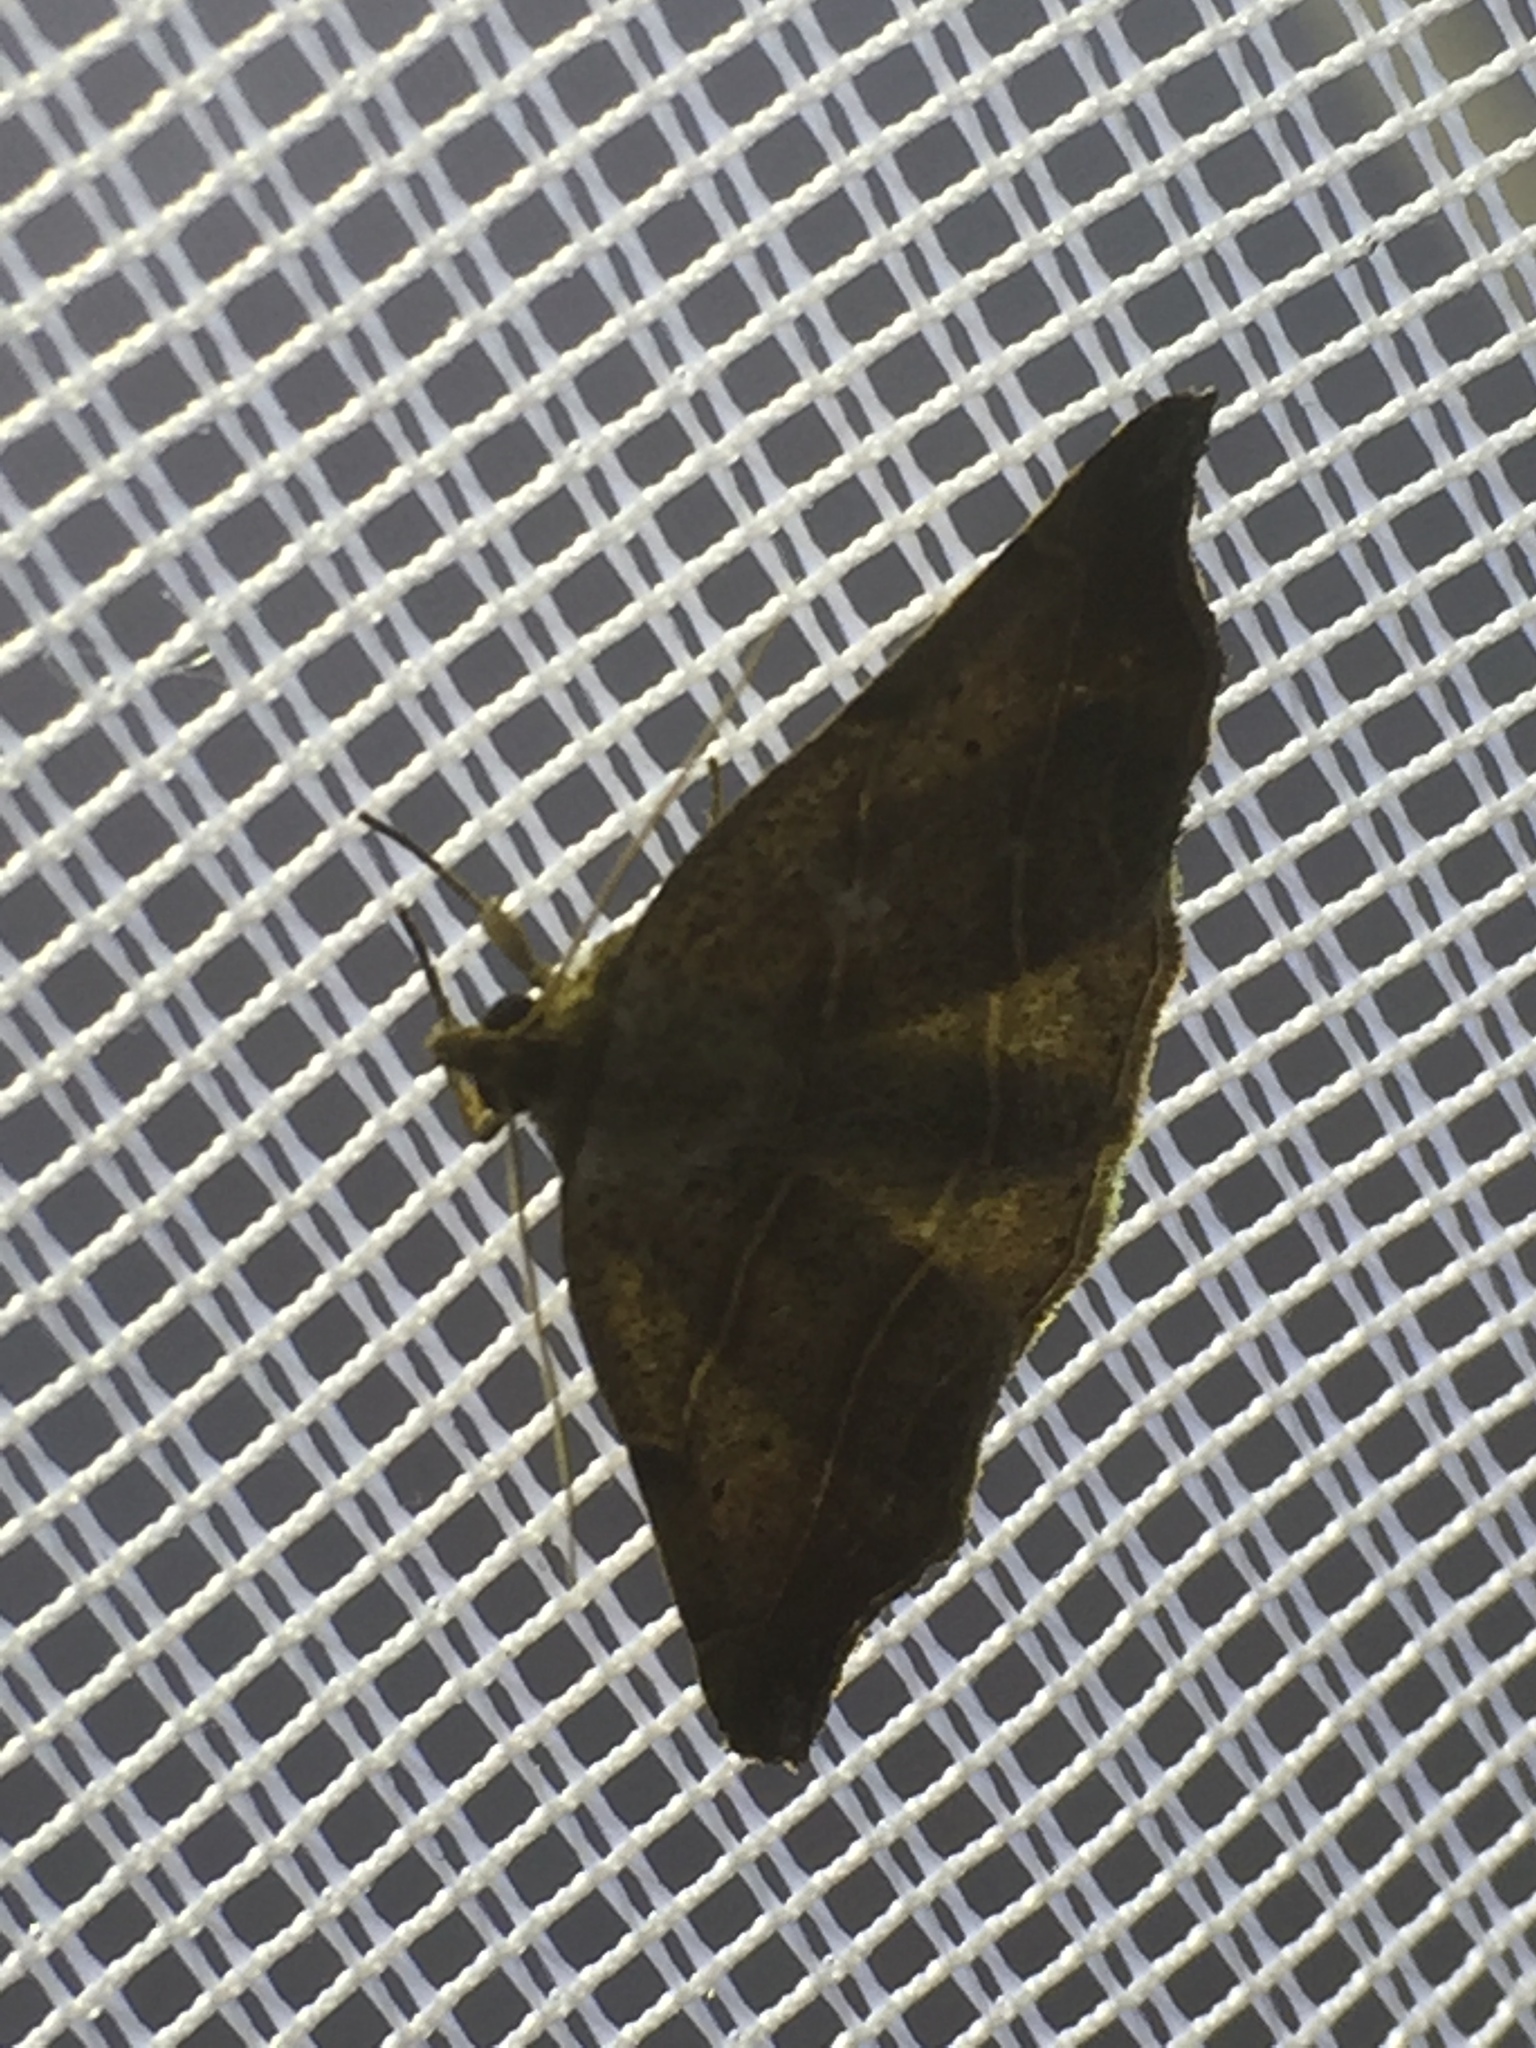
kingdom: Animalia
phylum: Arthropoda
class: Insecta
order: Lepidoptera
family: Erebidae
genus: Laspeyria
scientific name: Laspeyria flexula
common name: Beautiful hook-tip
